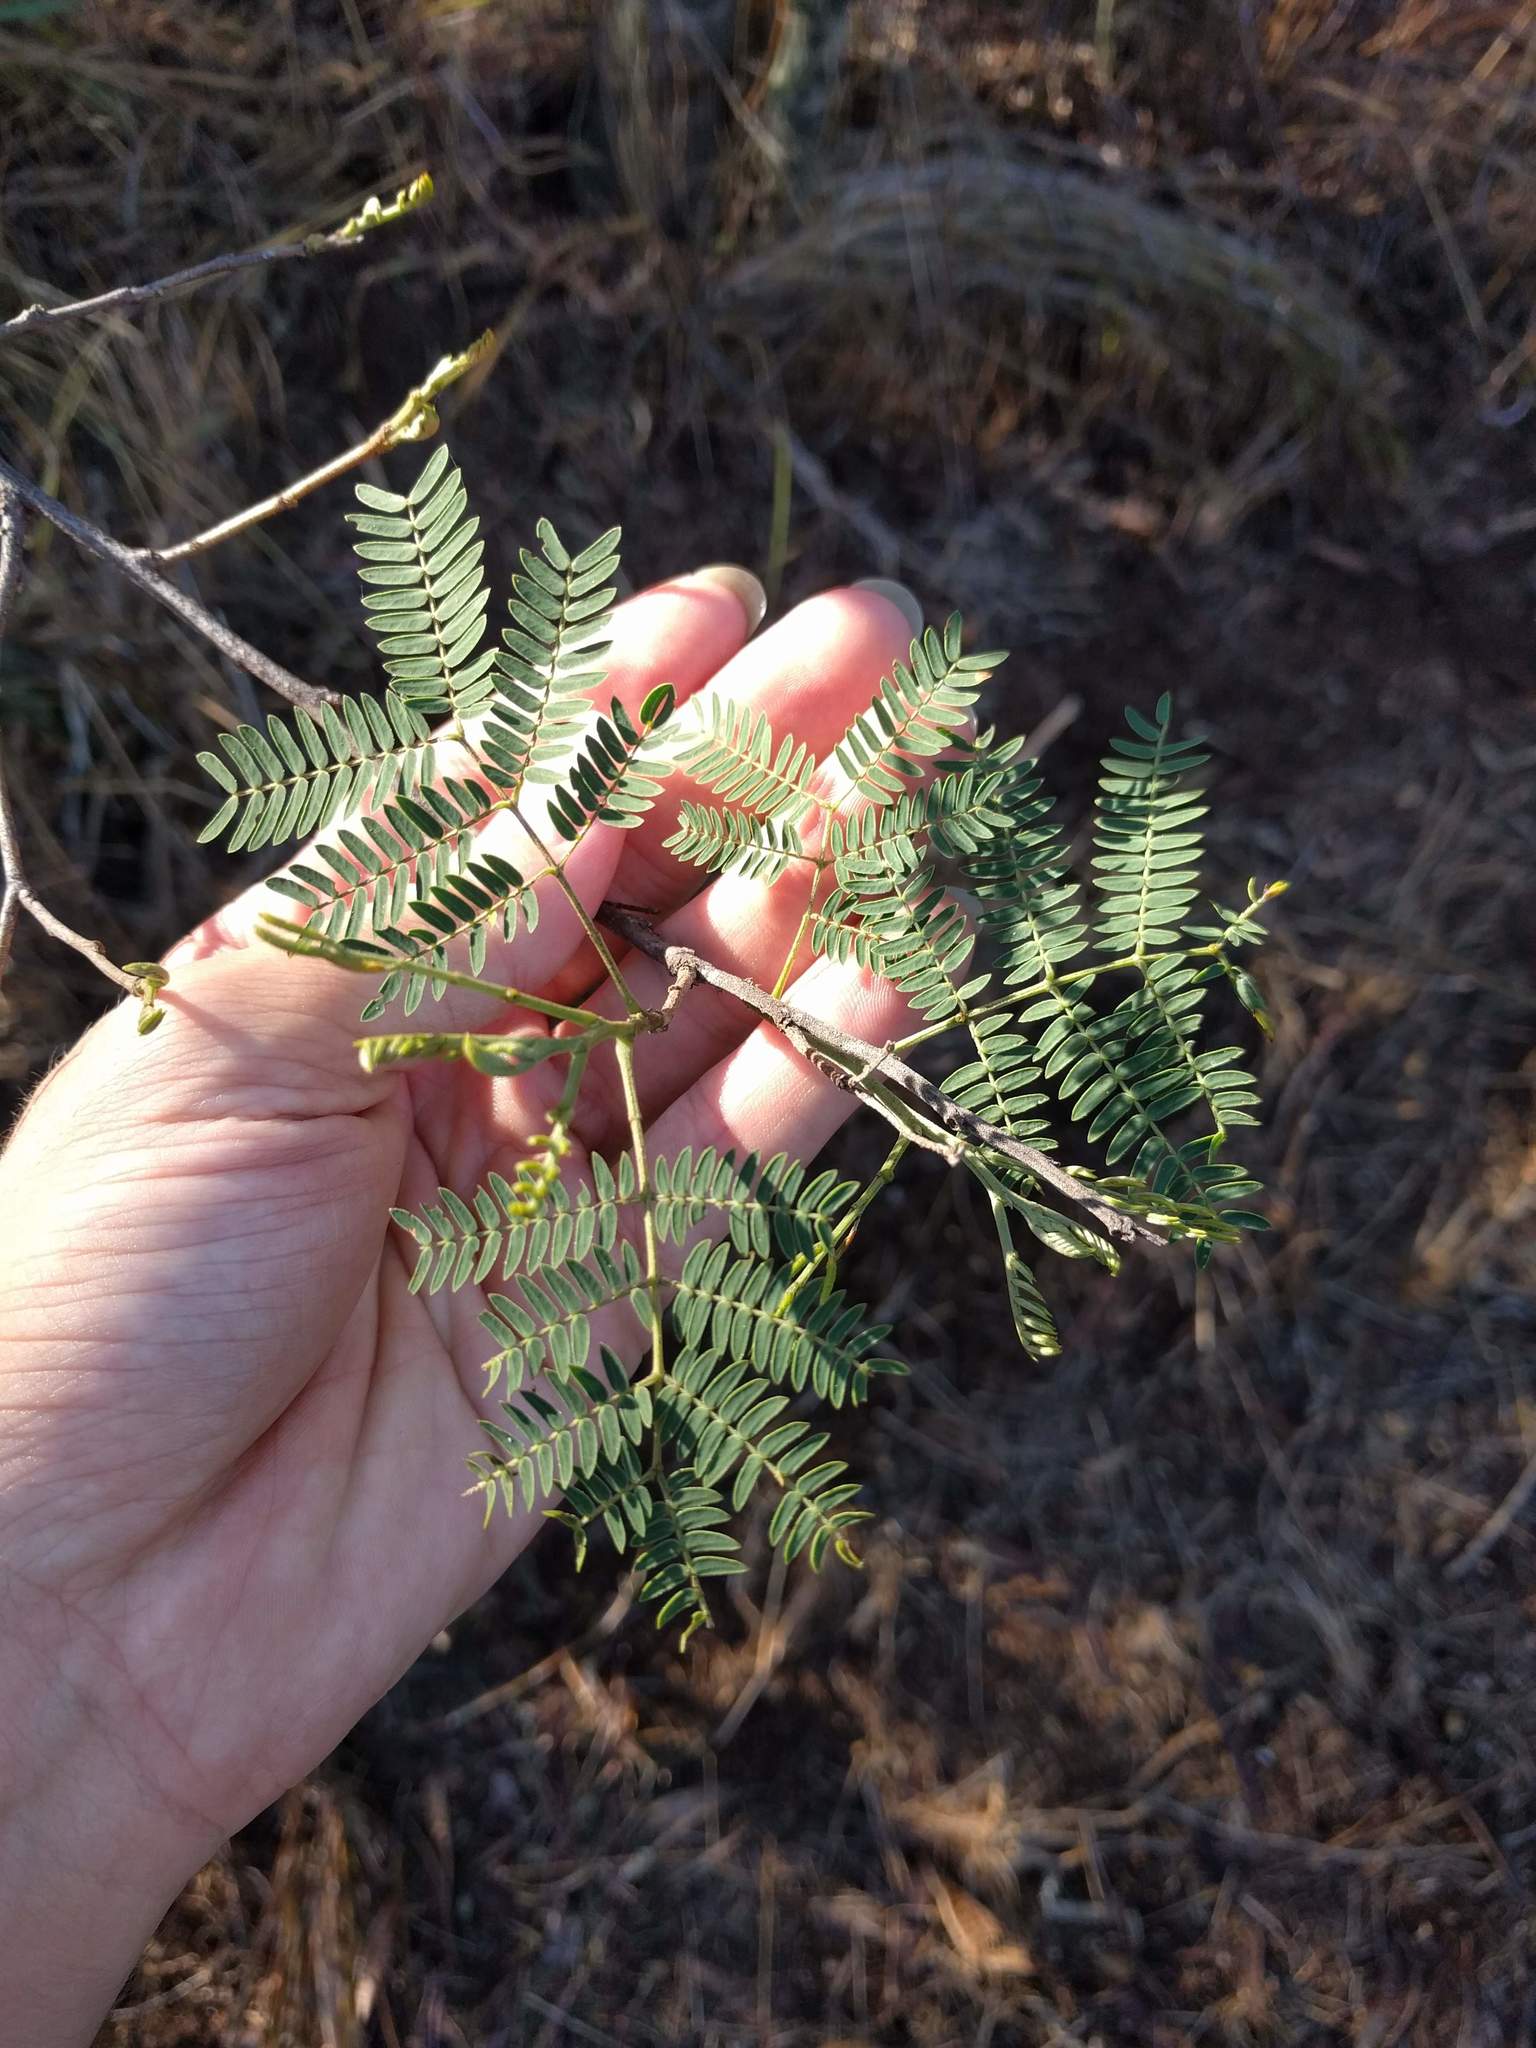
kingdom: Plantae
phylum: Tracheophyta
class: Magnoliopsida
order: Fabales
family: Fabaceae
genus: Leucaena
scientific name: Leucaena leucocephala
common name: White leadtree
